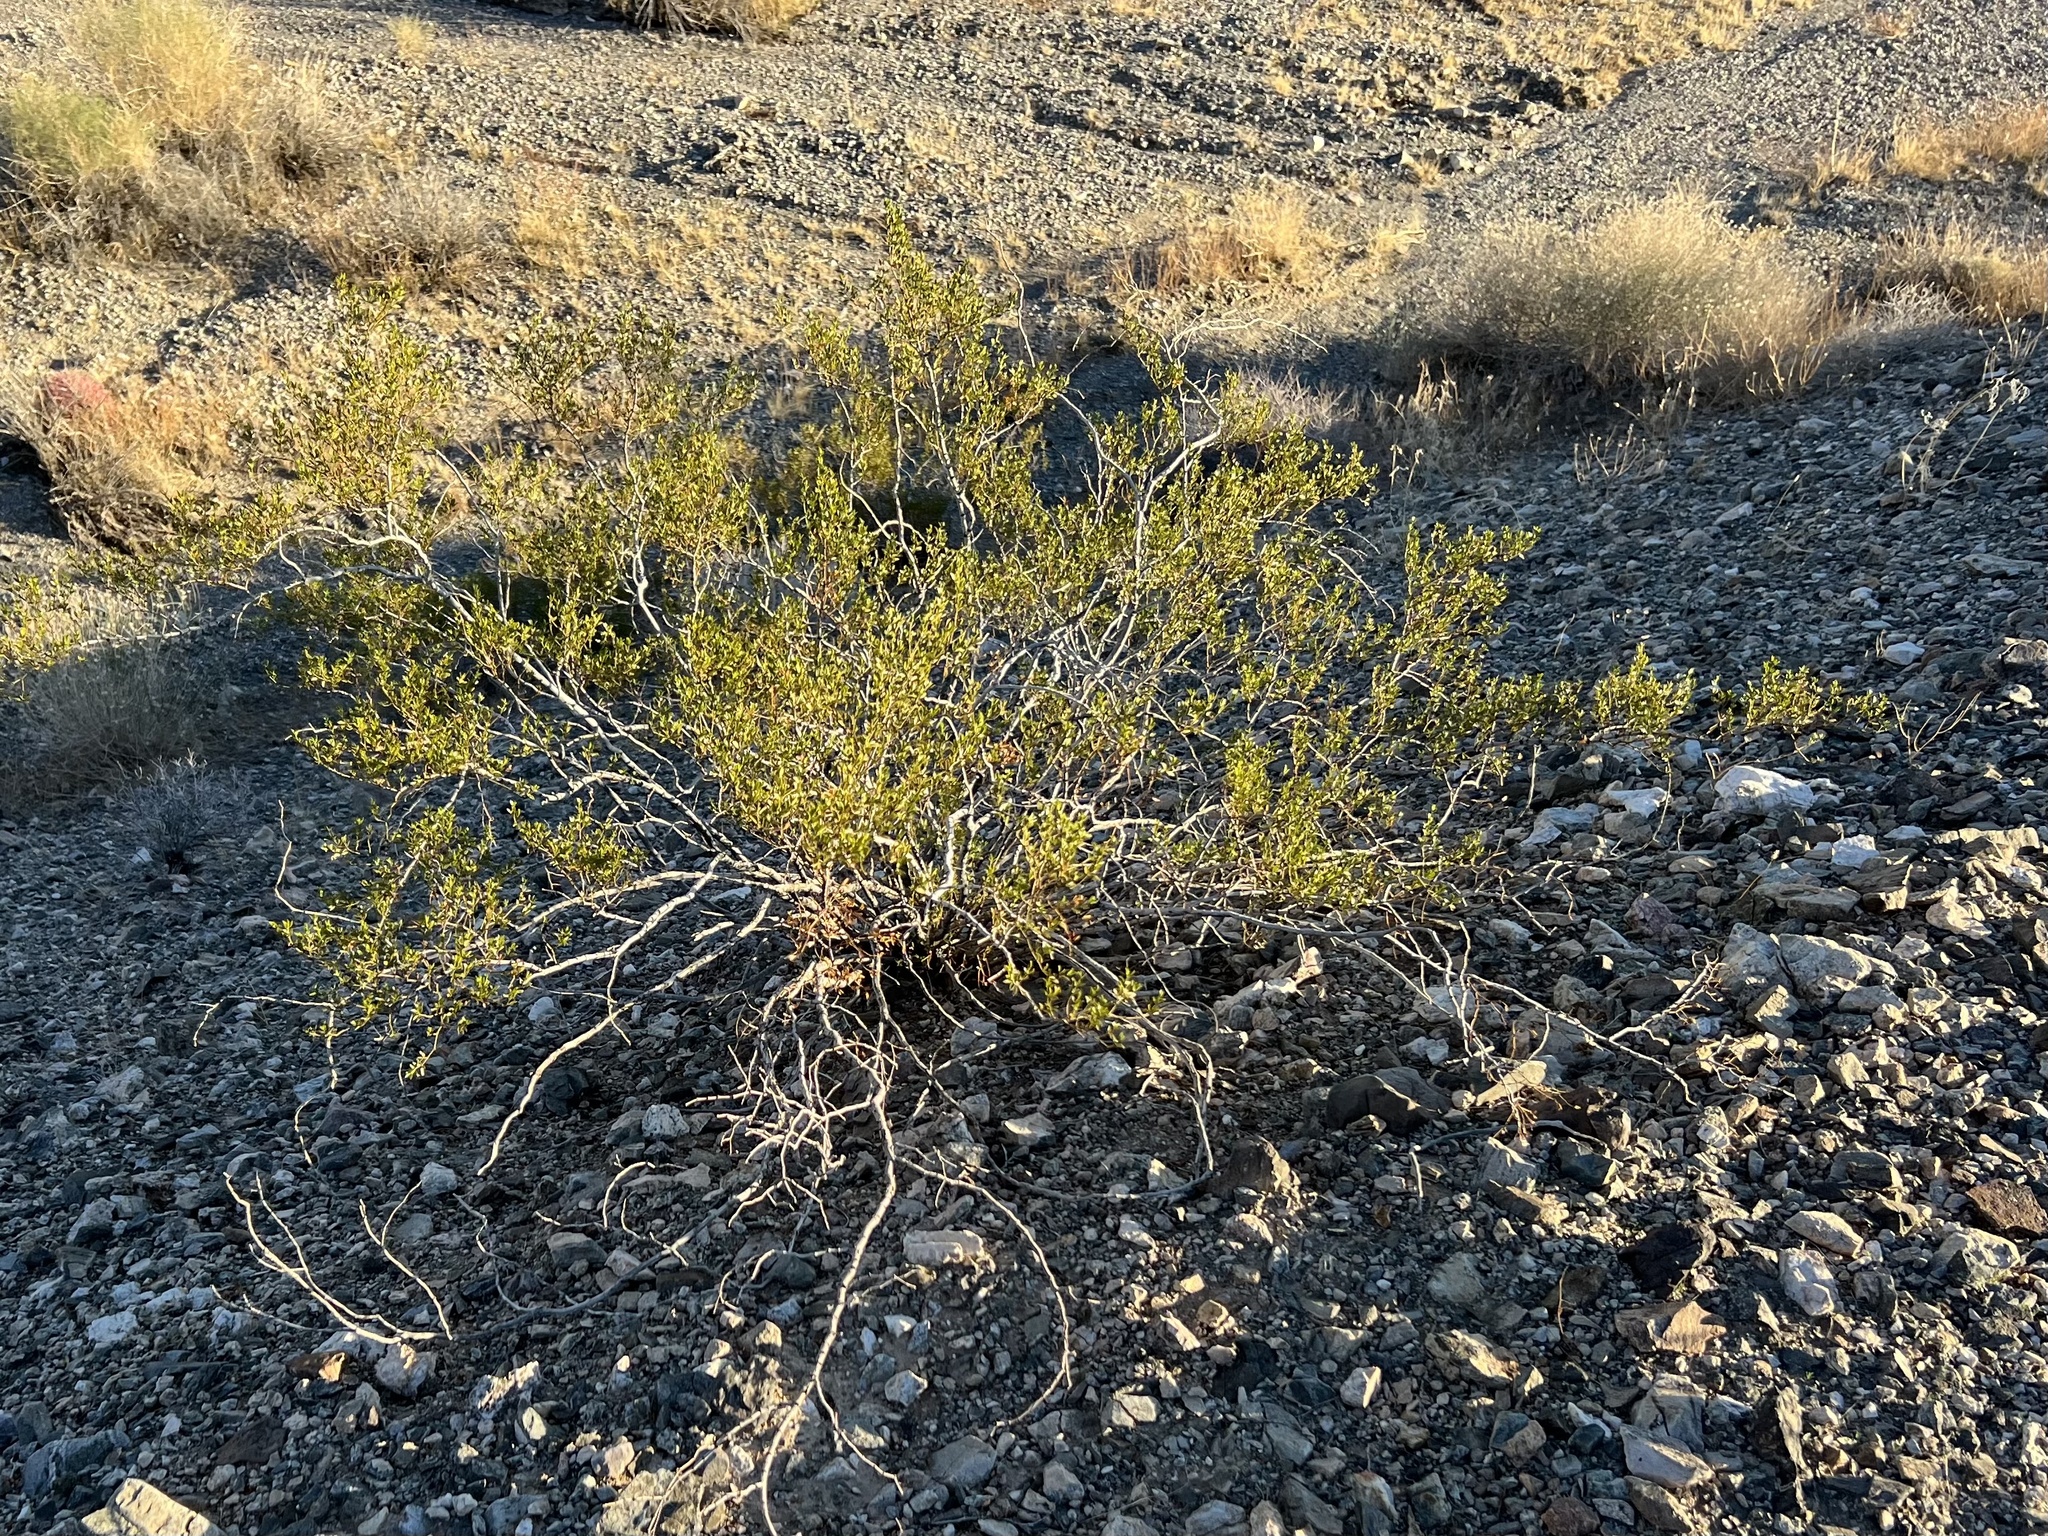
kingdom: Plantae
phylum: Tracheophyta
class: Magnoliopsida
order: Zygophyllales
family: Zygophyllaceae
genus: Larrea
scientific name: Larrea tridentata
